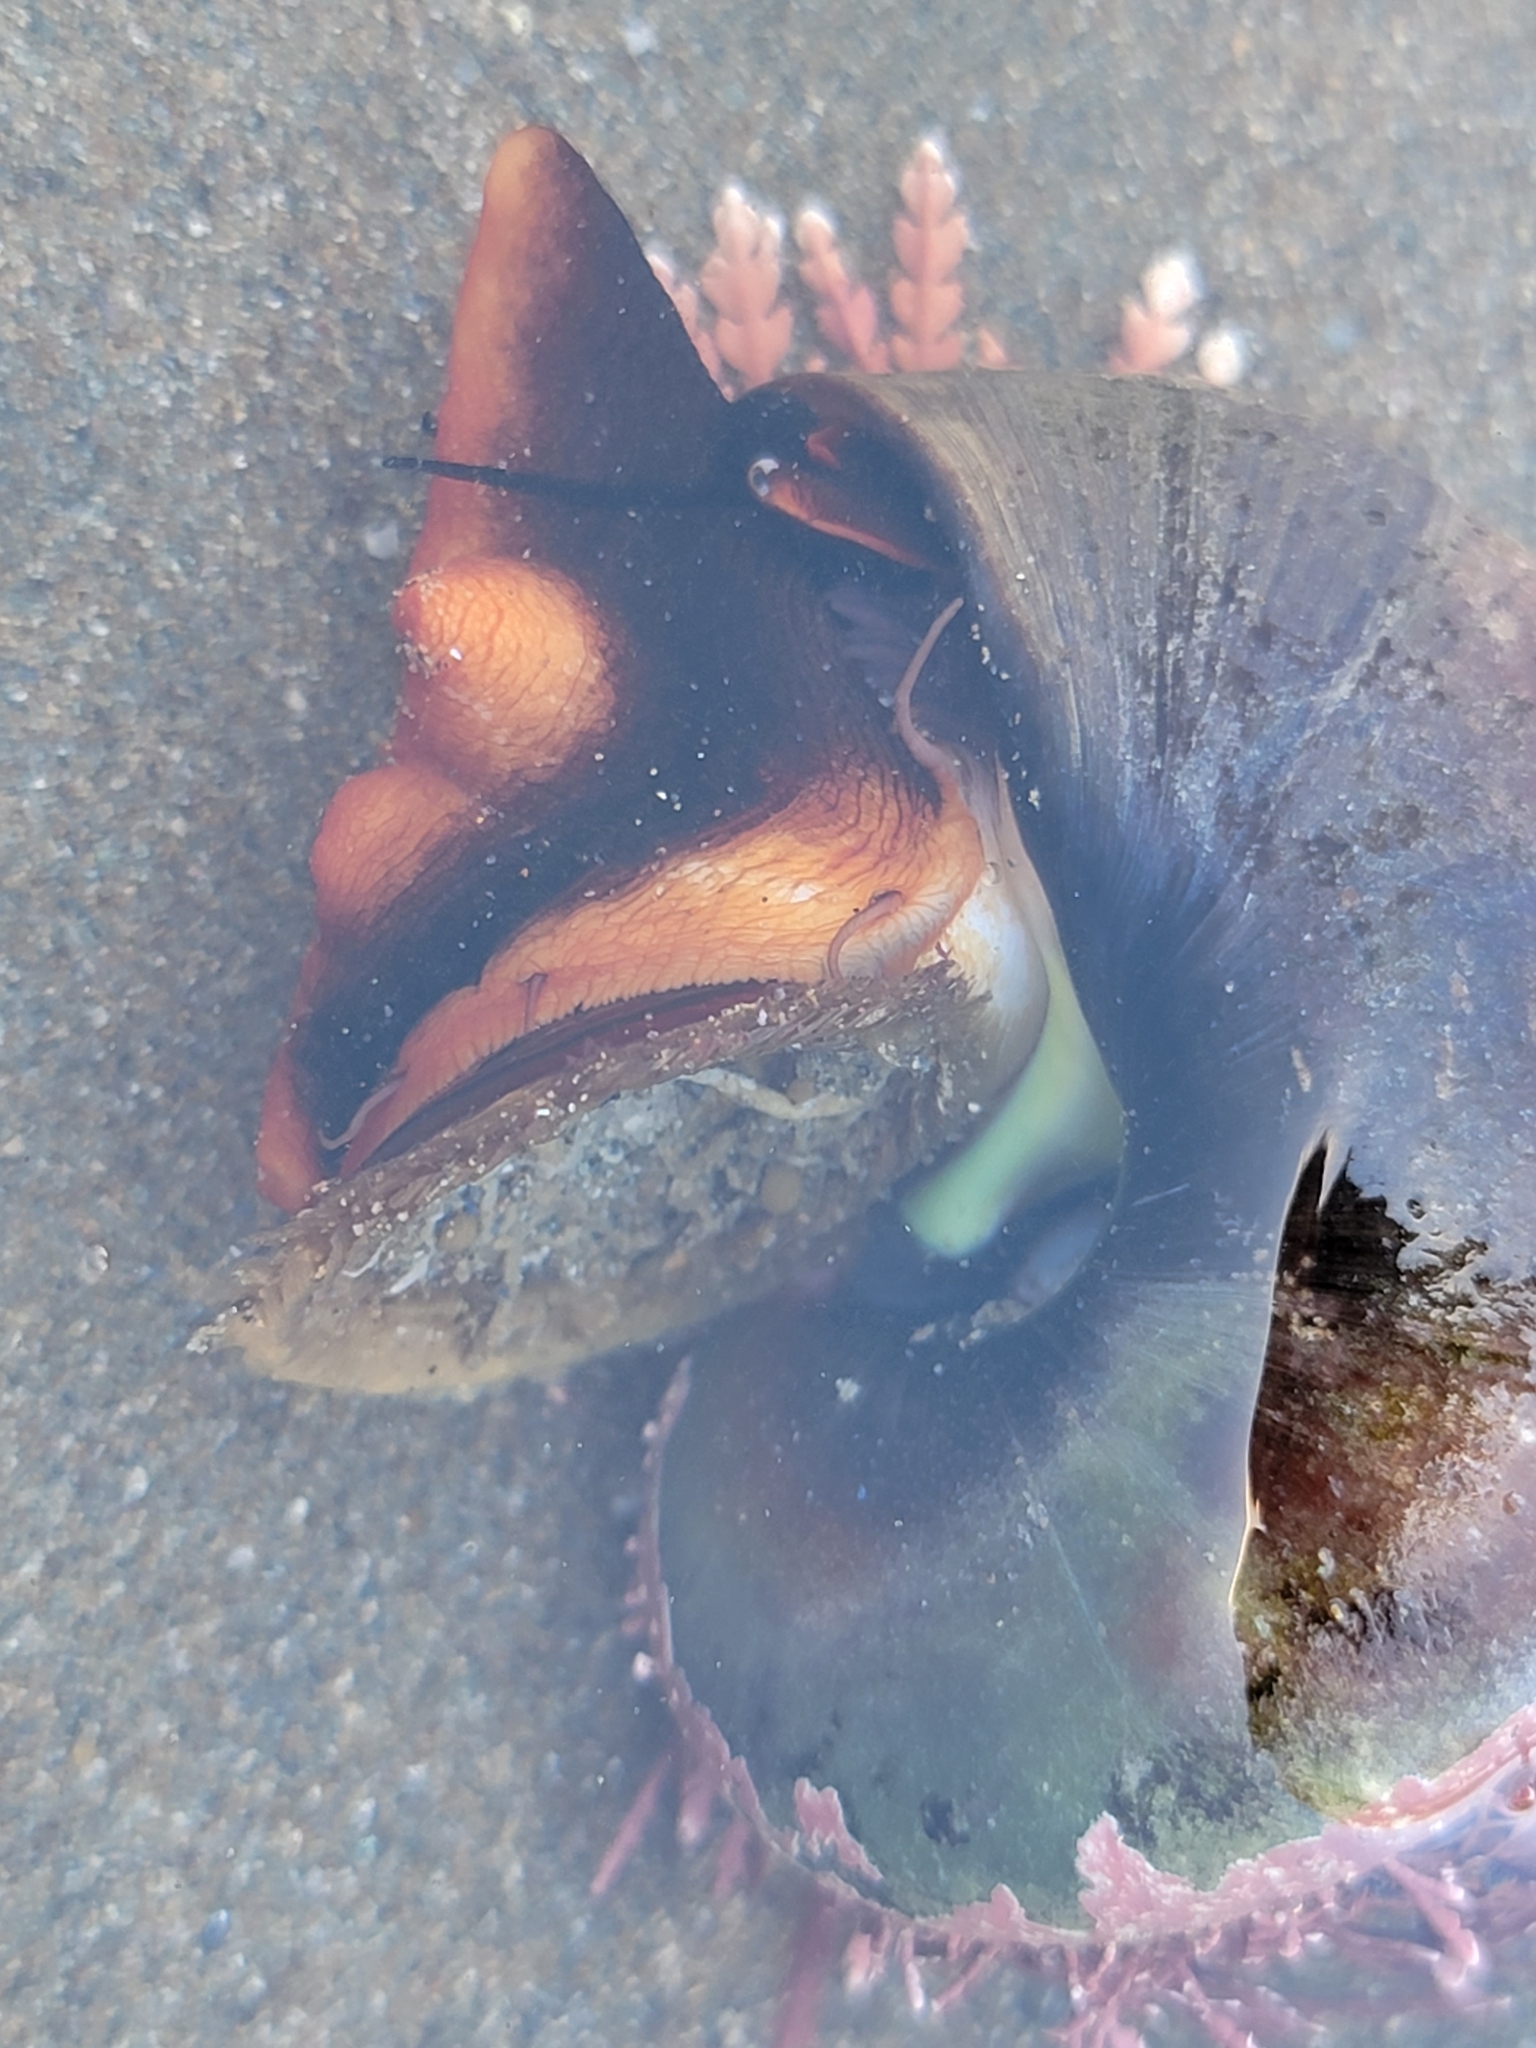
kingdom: Animalia
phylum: Mollusca
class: Gastropoda
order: Trochida
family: Tegulidae
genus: Norrisia
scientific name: Norrisia norrisii
